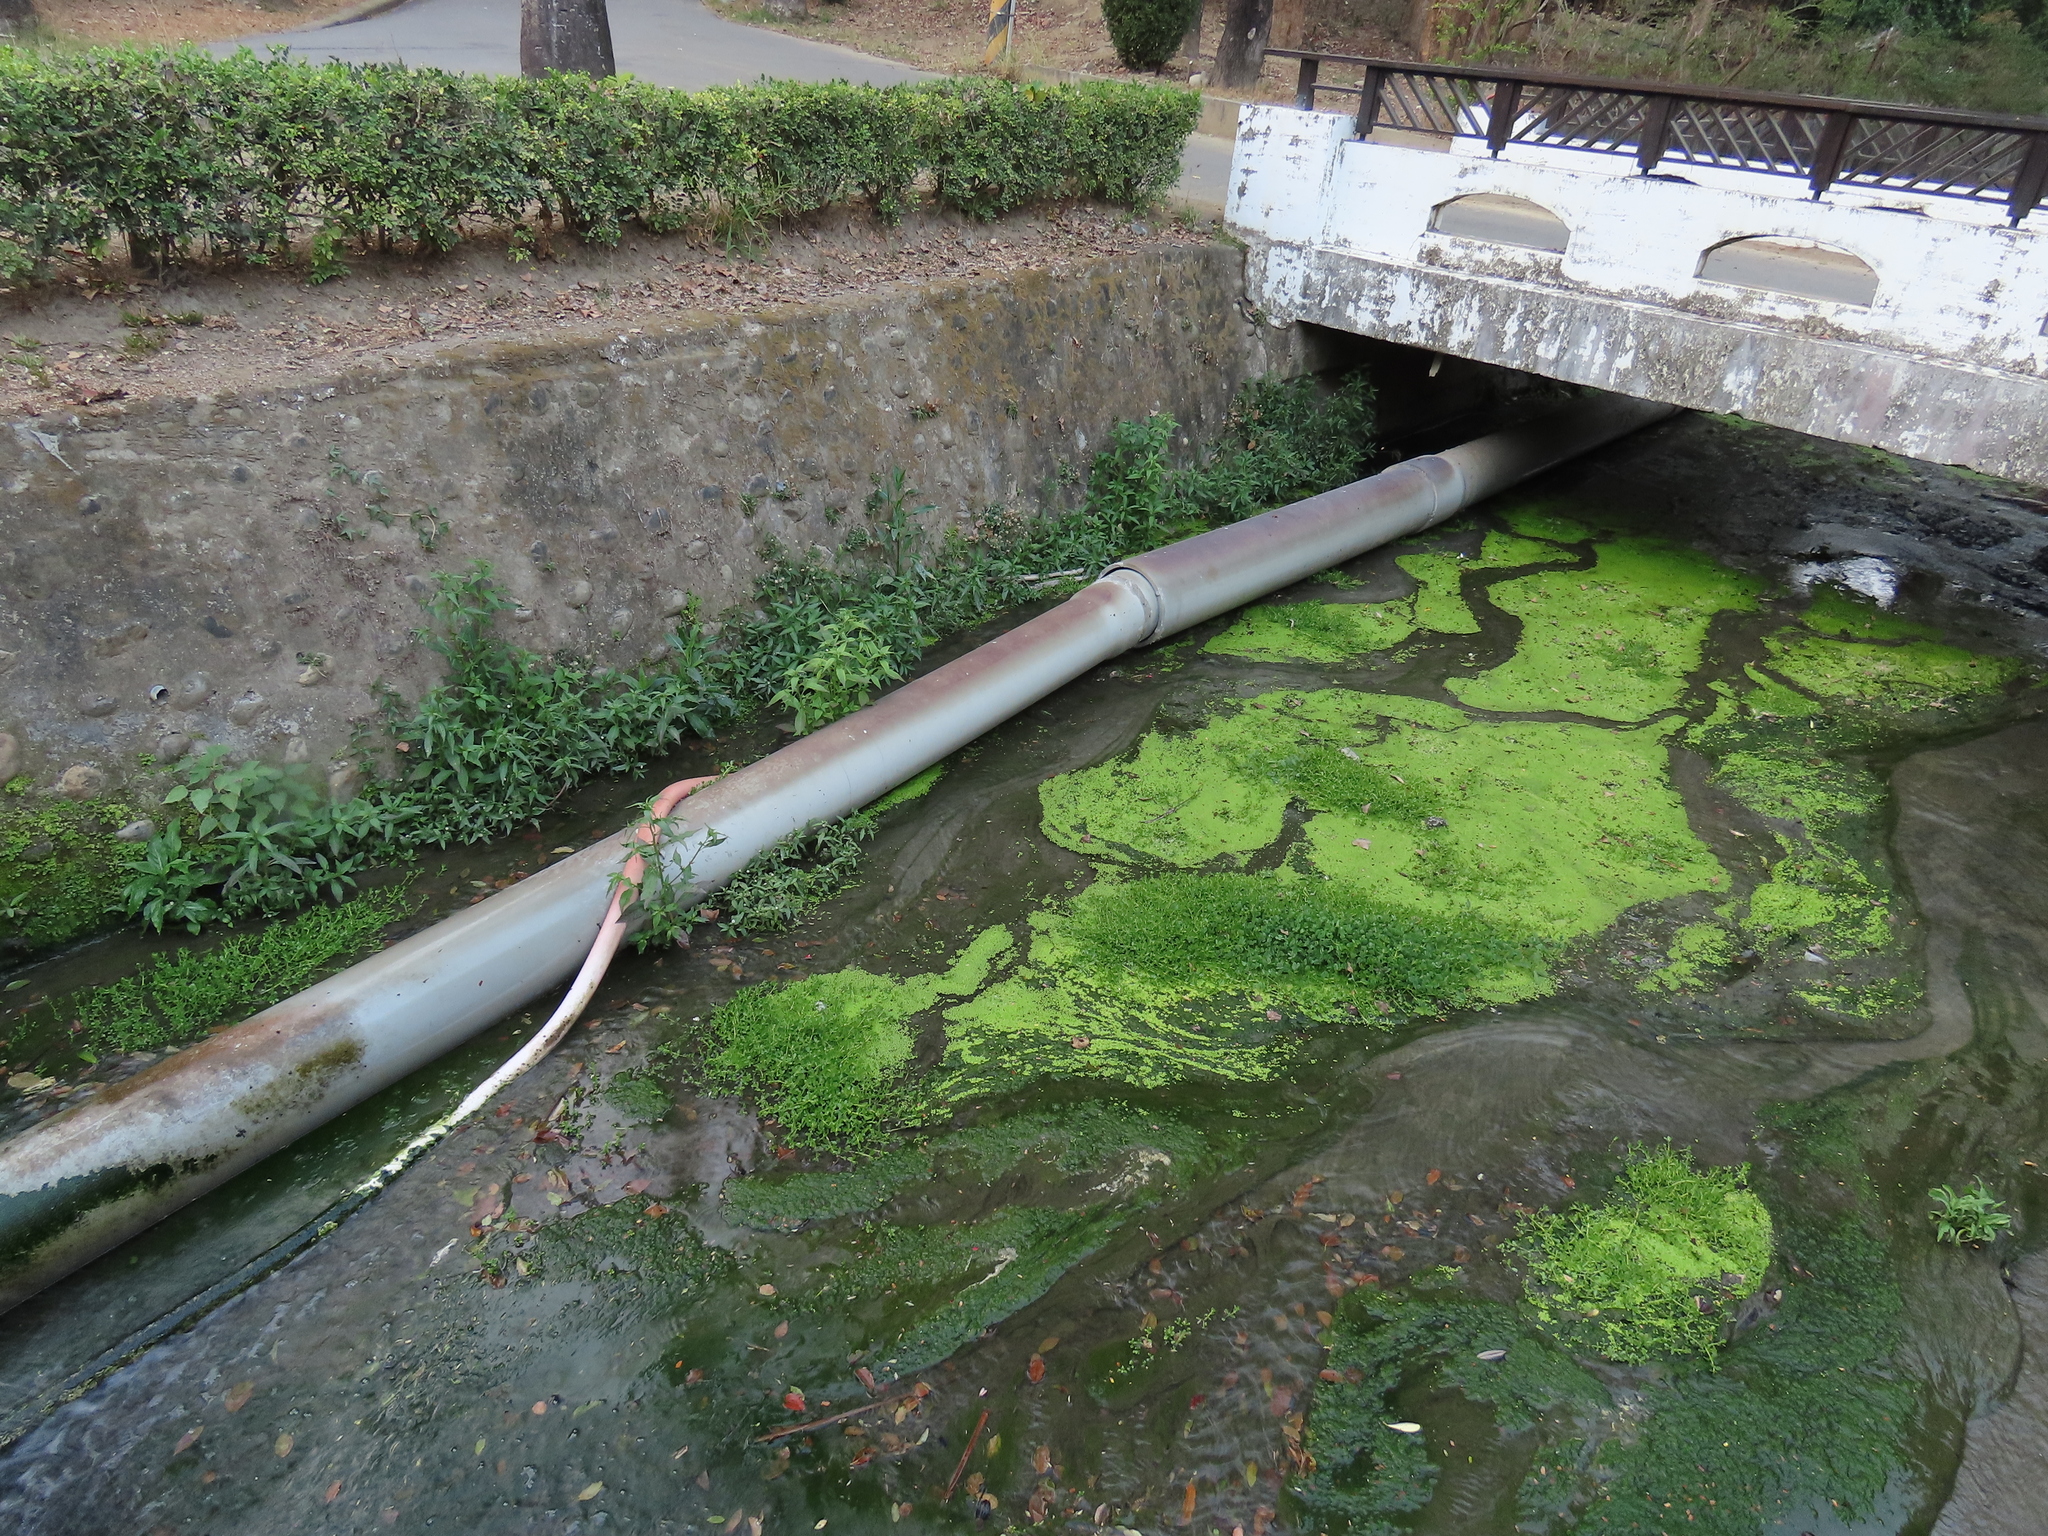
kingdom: Plantae
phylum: Tracheophyta
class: Liliopsida
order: Alismatales
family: Araceae
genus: Lemna
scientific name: Lemna aequinoctialis
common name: Duckweed
